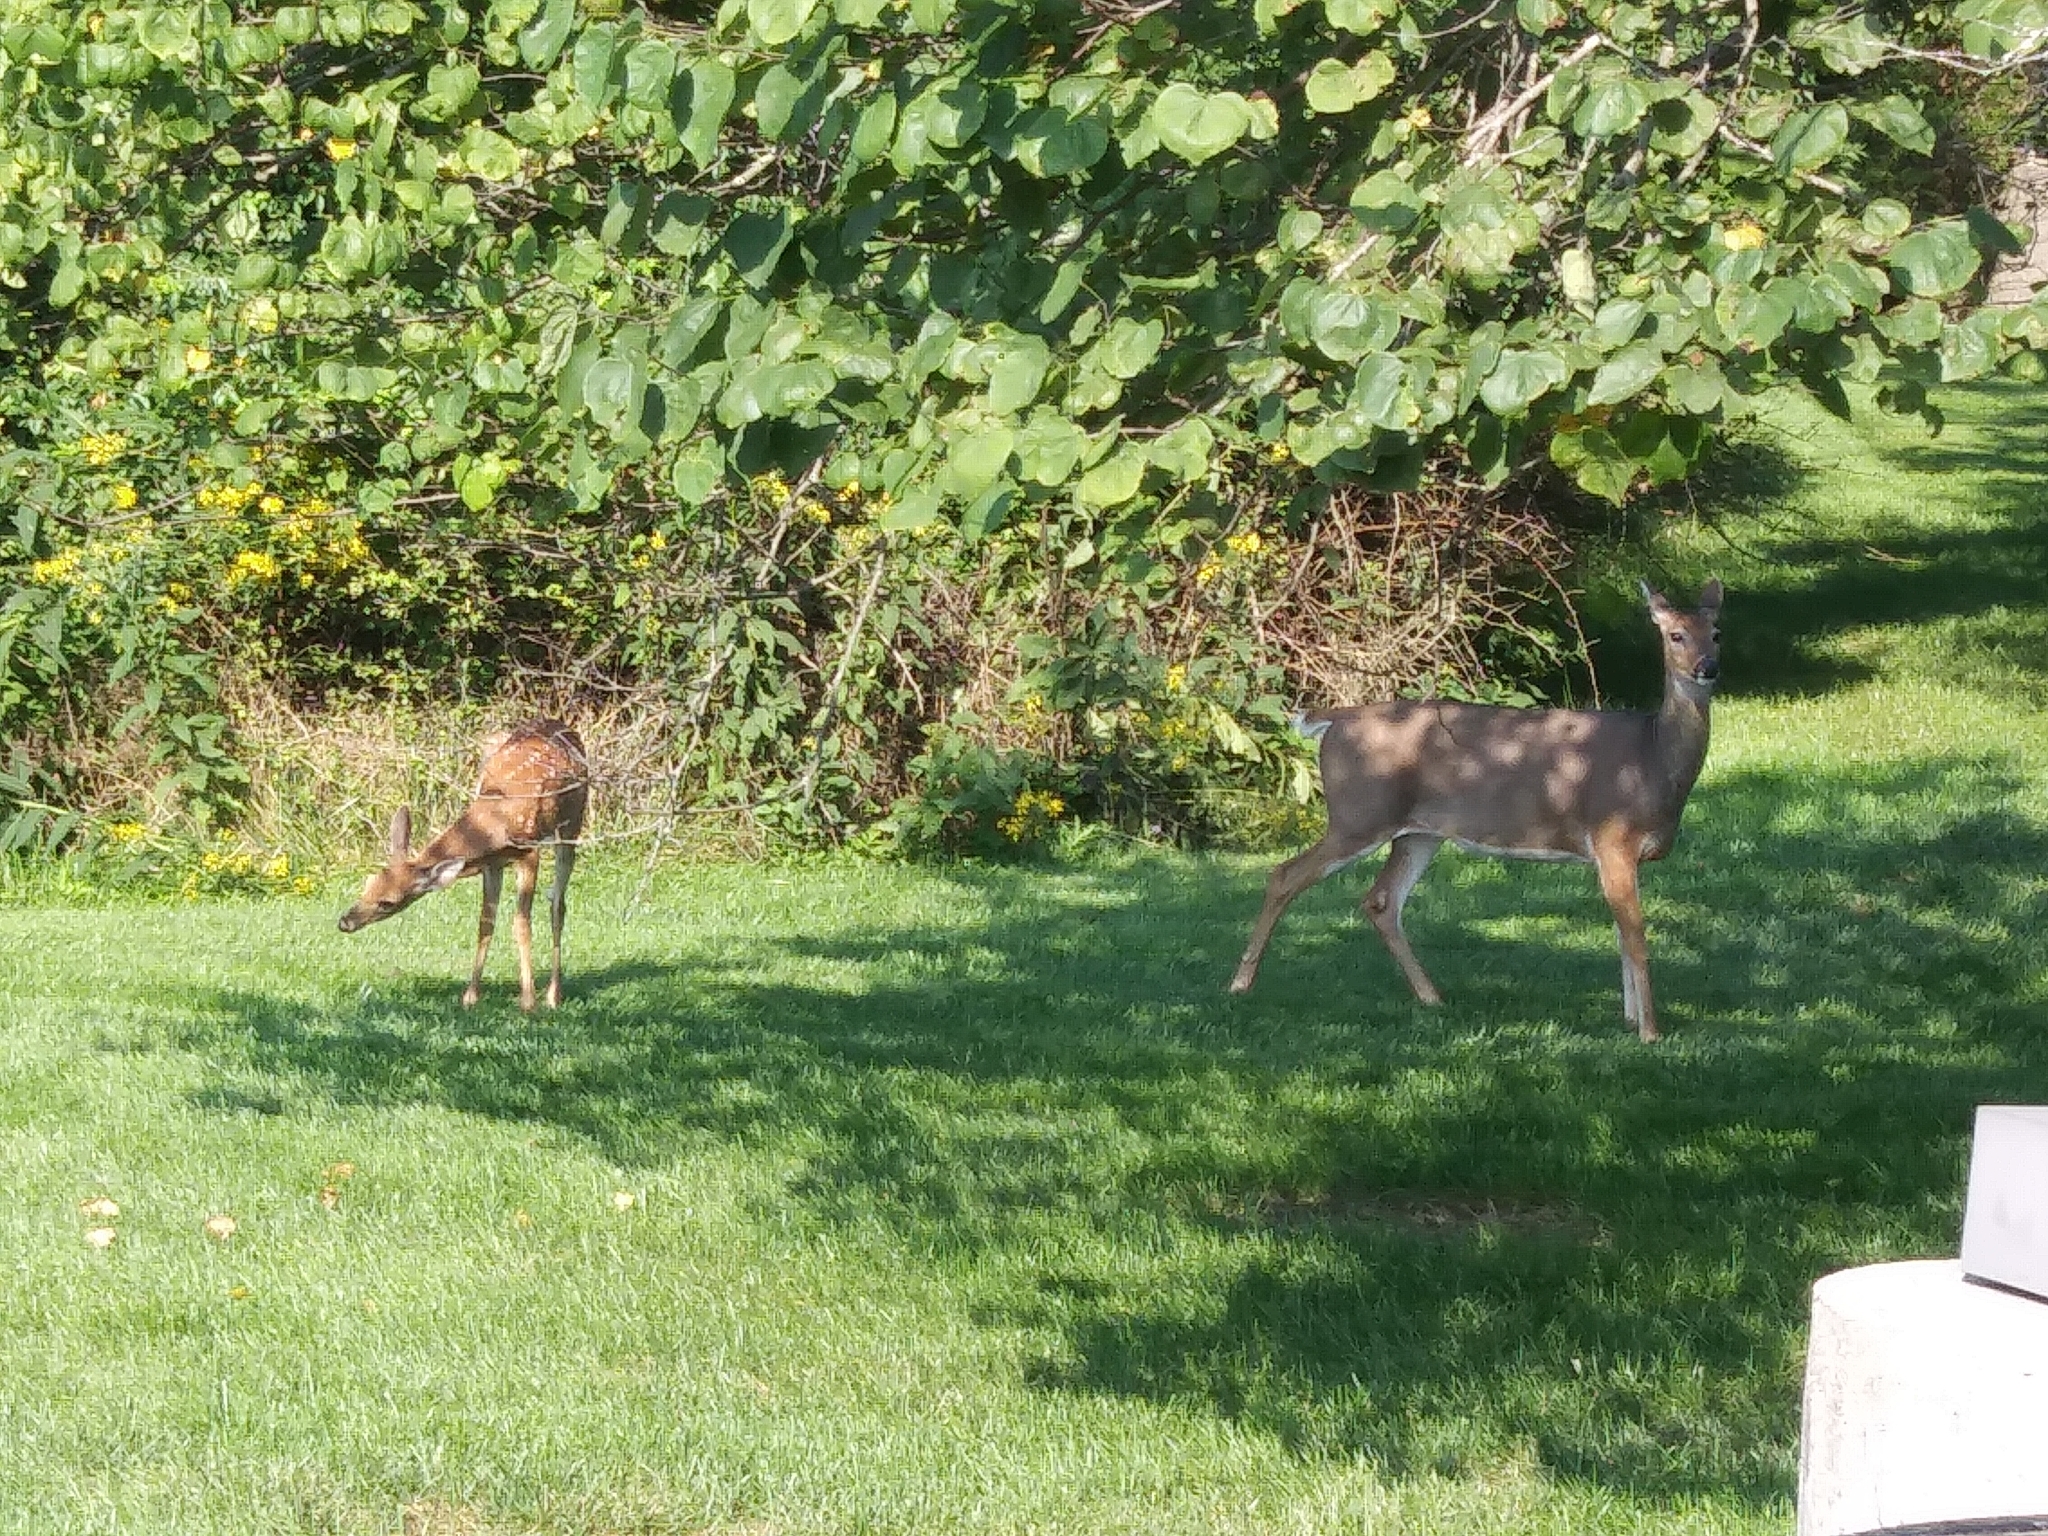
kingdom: Animalia
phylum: Chordata
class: Mammalia
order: Artiodactyla
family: Cervidae
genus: Odocoileus
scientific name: Odocoileus virginianus
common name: White-tailed deer
